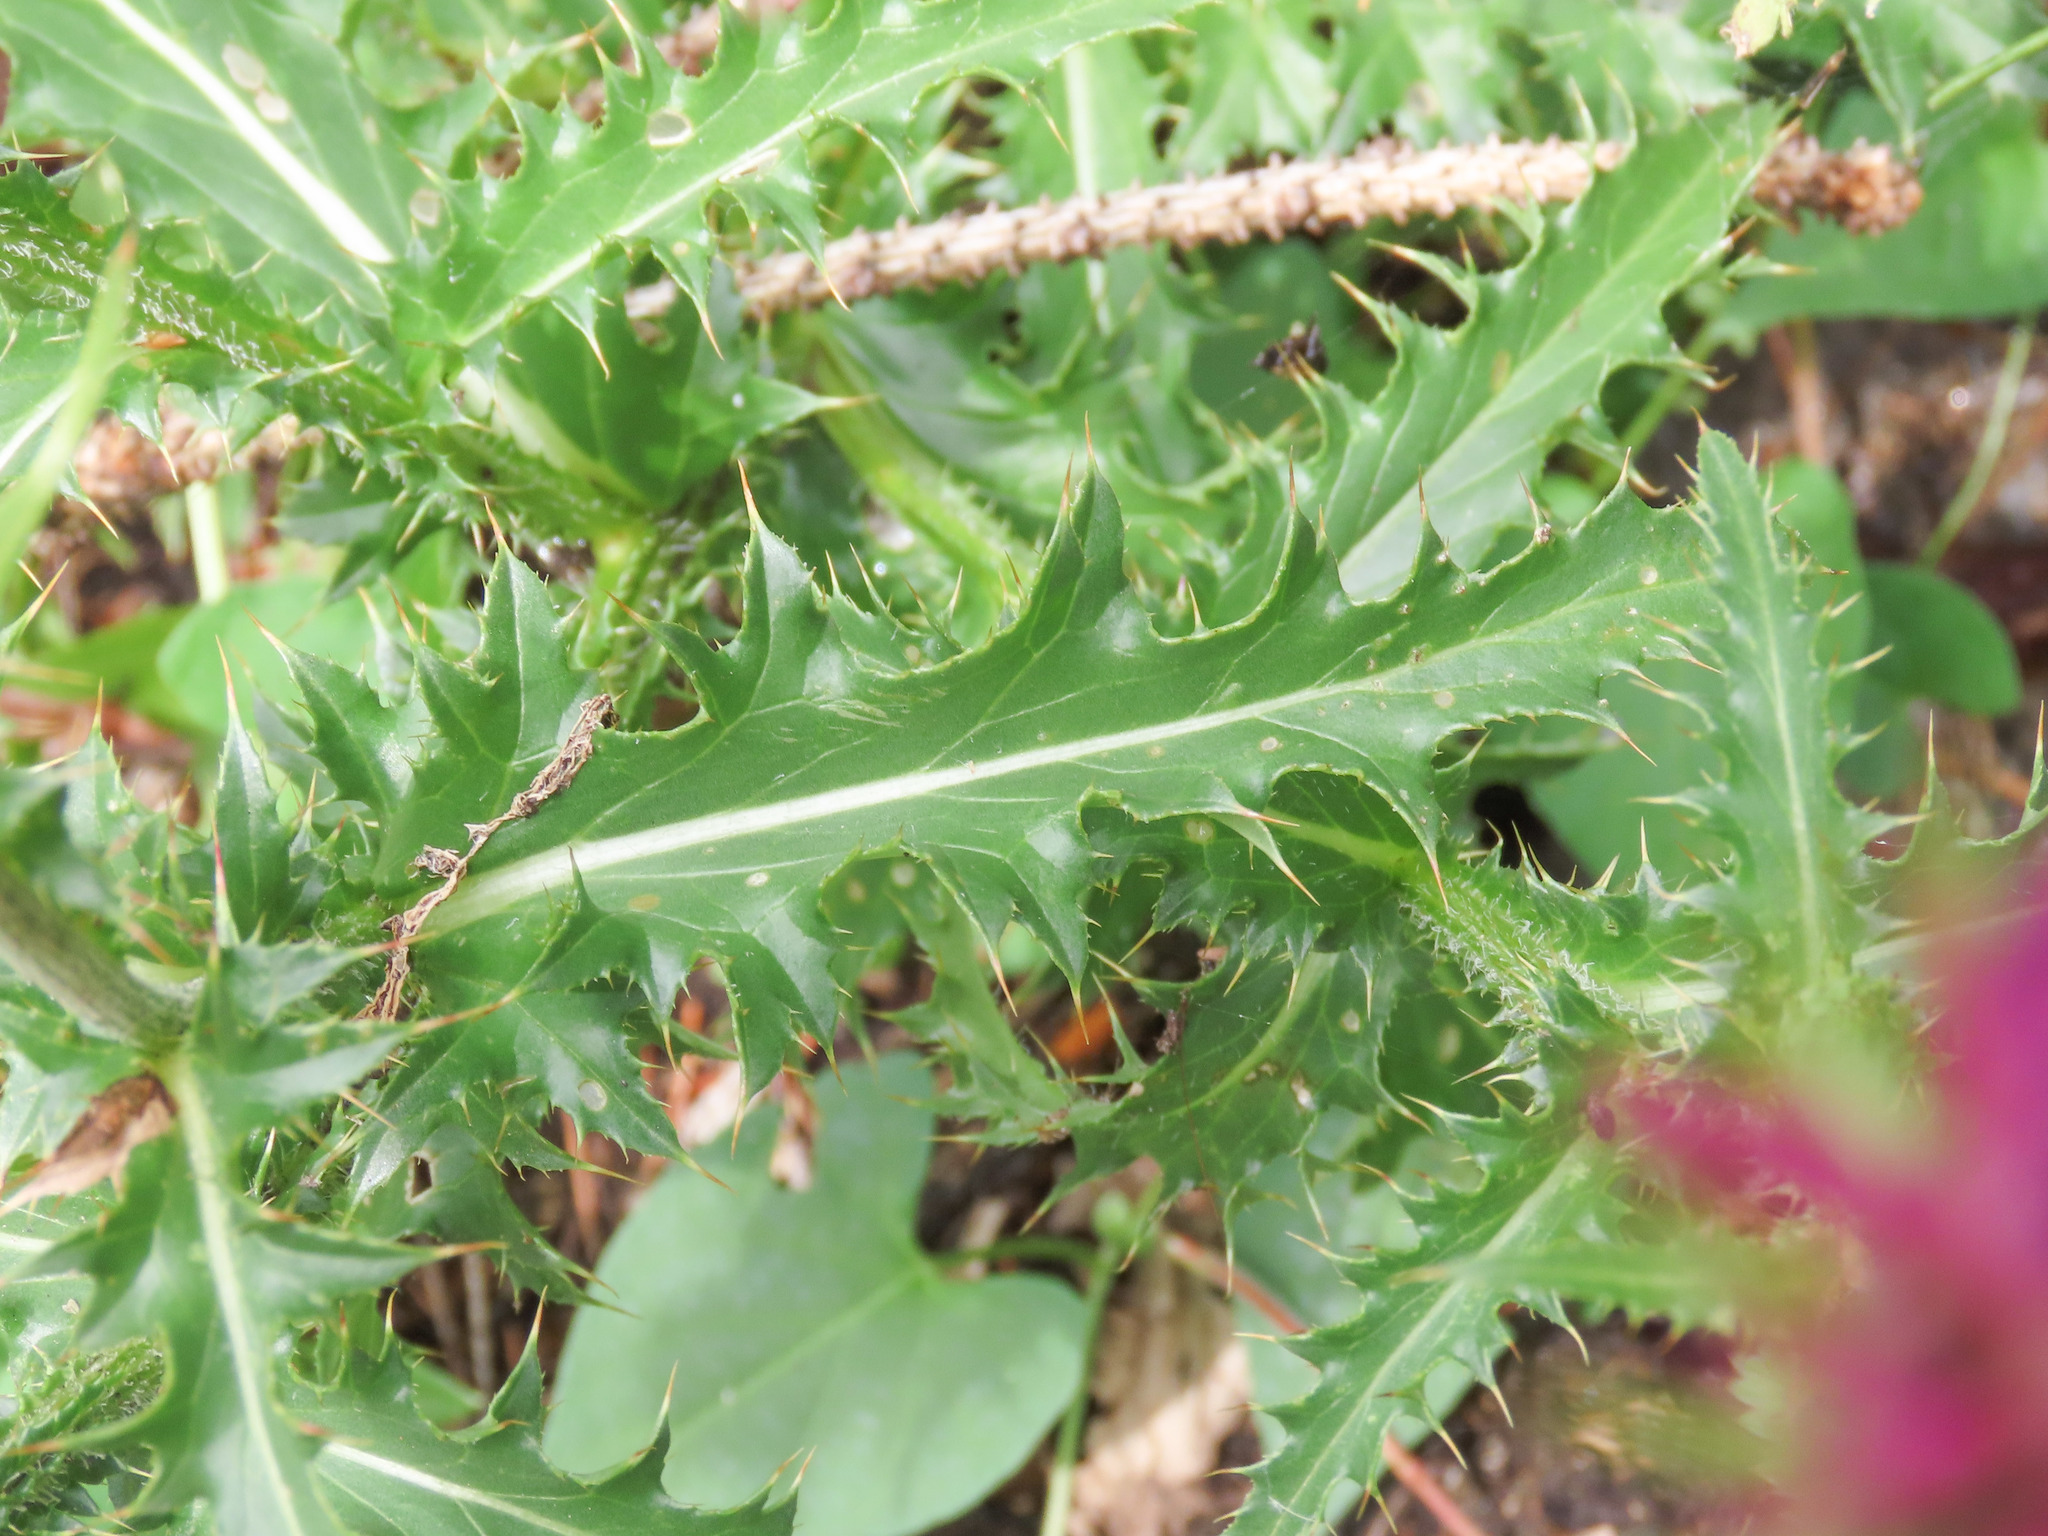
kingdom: Plantae
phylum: Tracheophyta
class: Magnoliopsida
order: Asterales
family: Asteraceae
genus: Carduus
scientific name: Carduus defloratus
